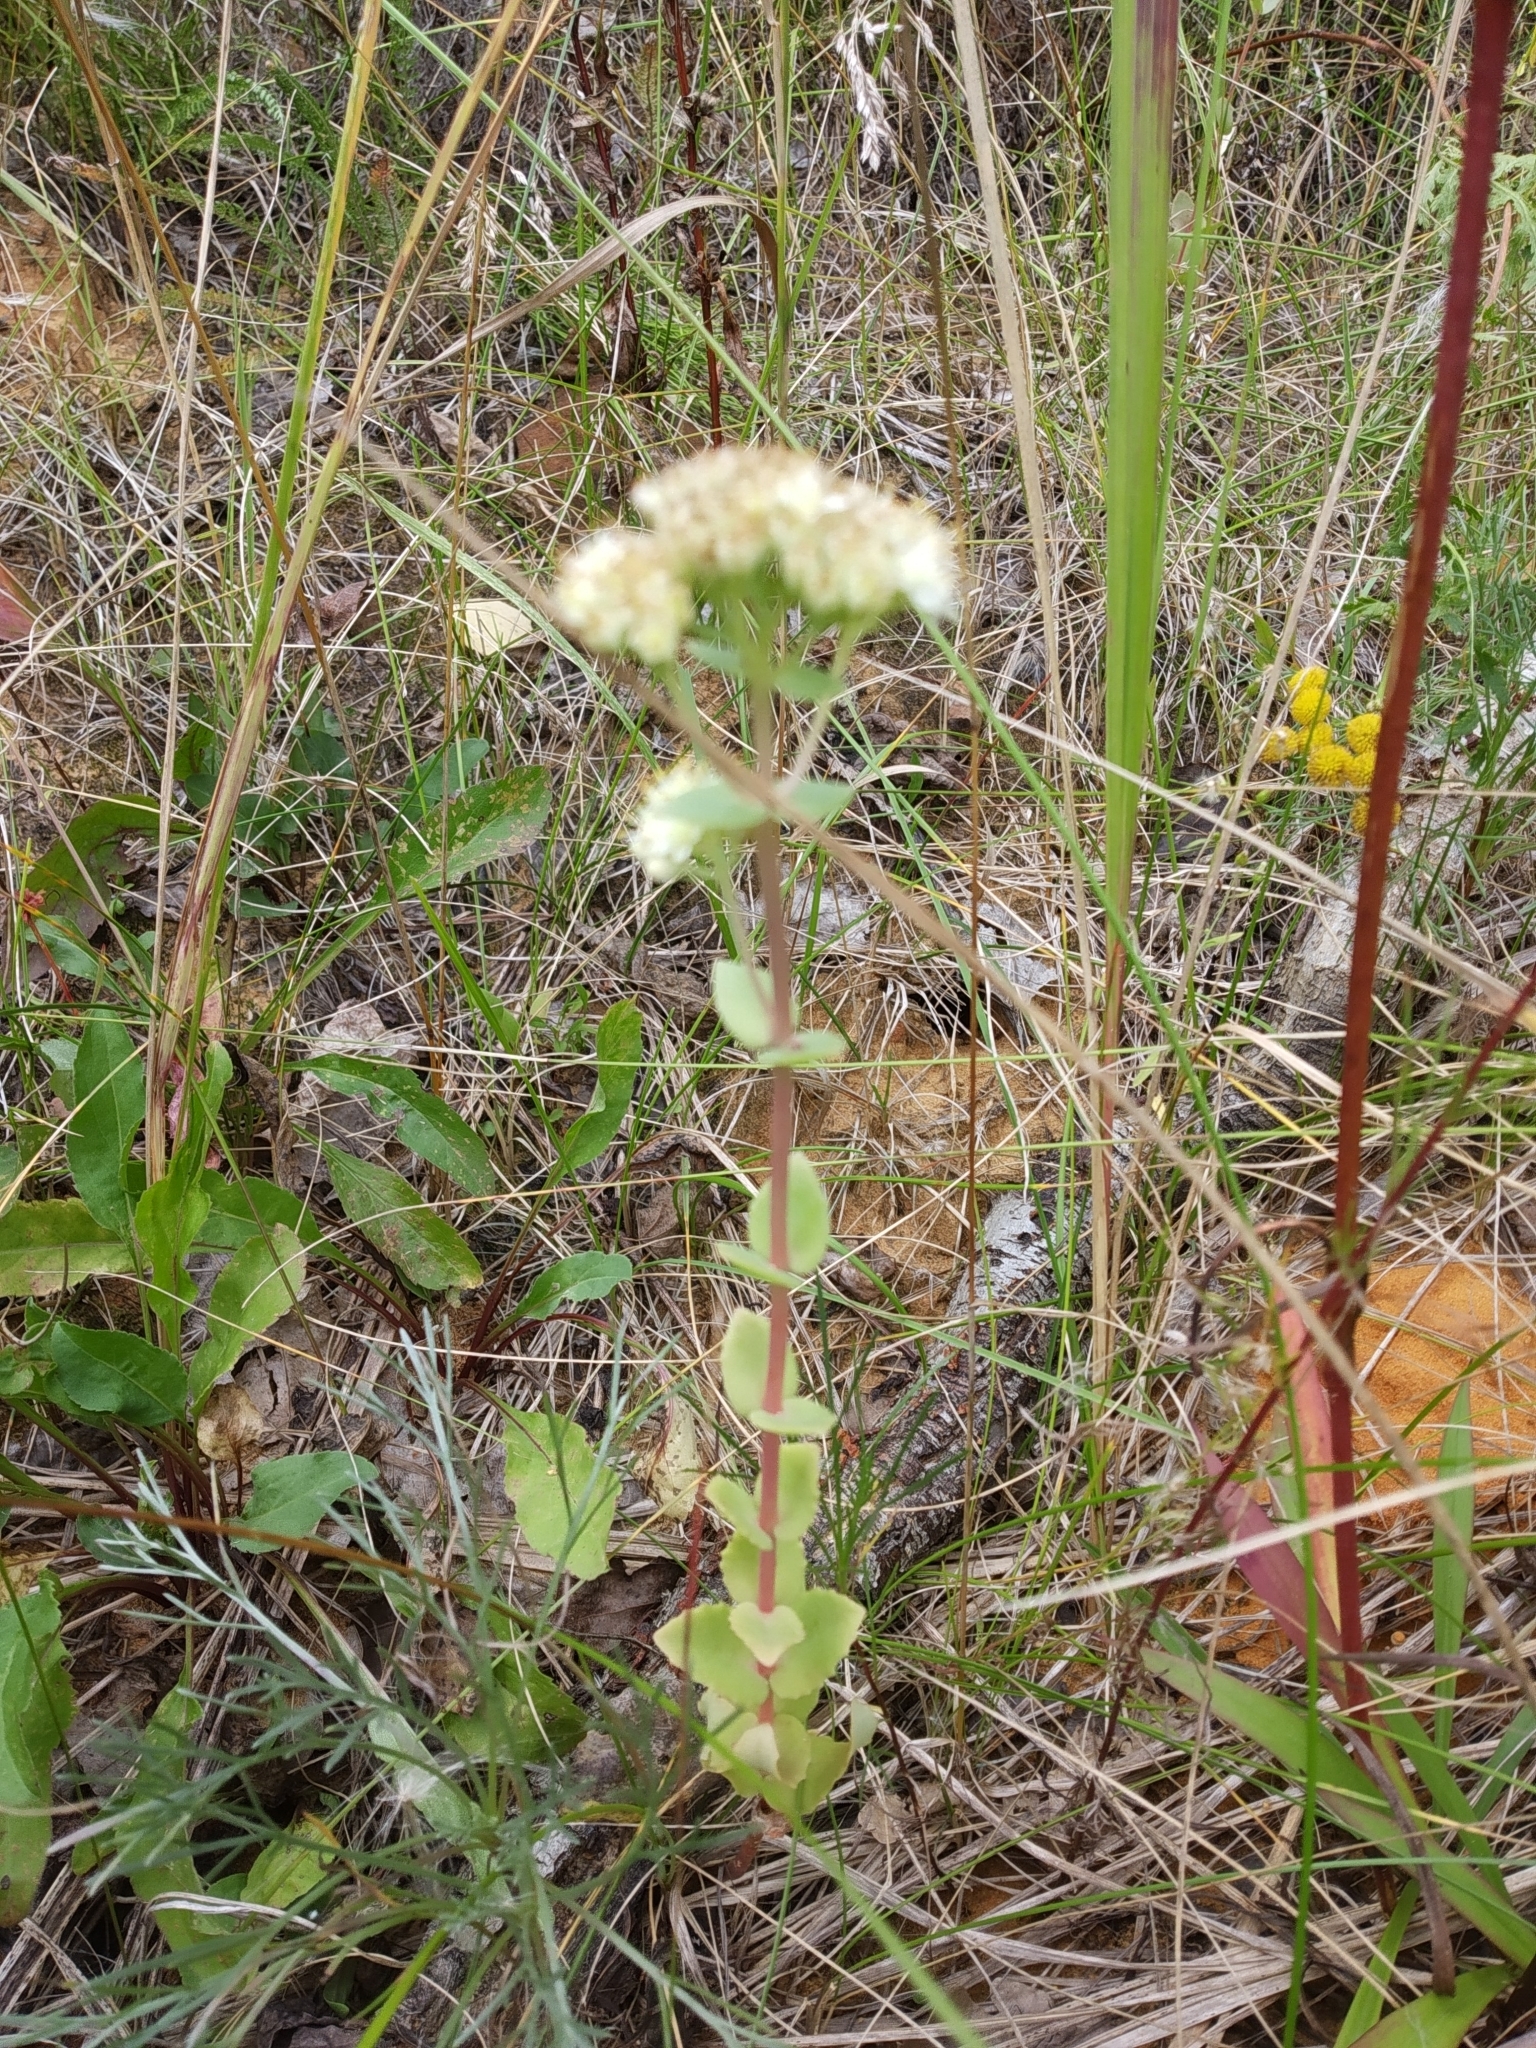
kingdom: Plantae
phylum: Tracheophyta
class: Magnoliopsida
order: Saxifragales
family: Crassulaceae
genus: Hylotelephium
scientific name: Hylotelephium maximum
